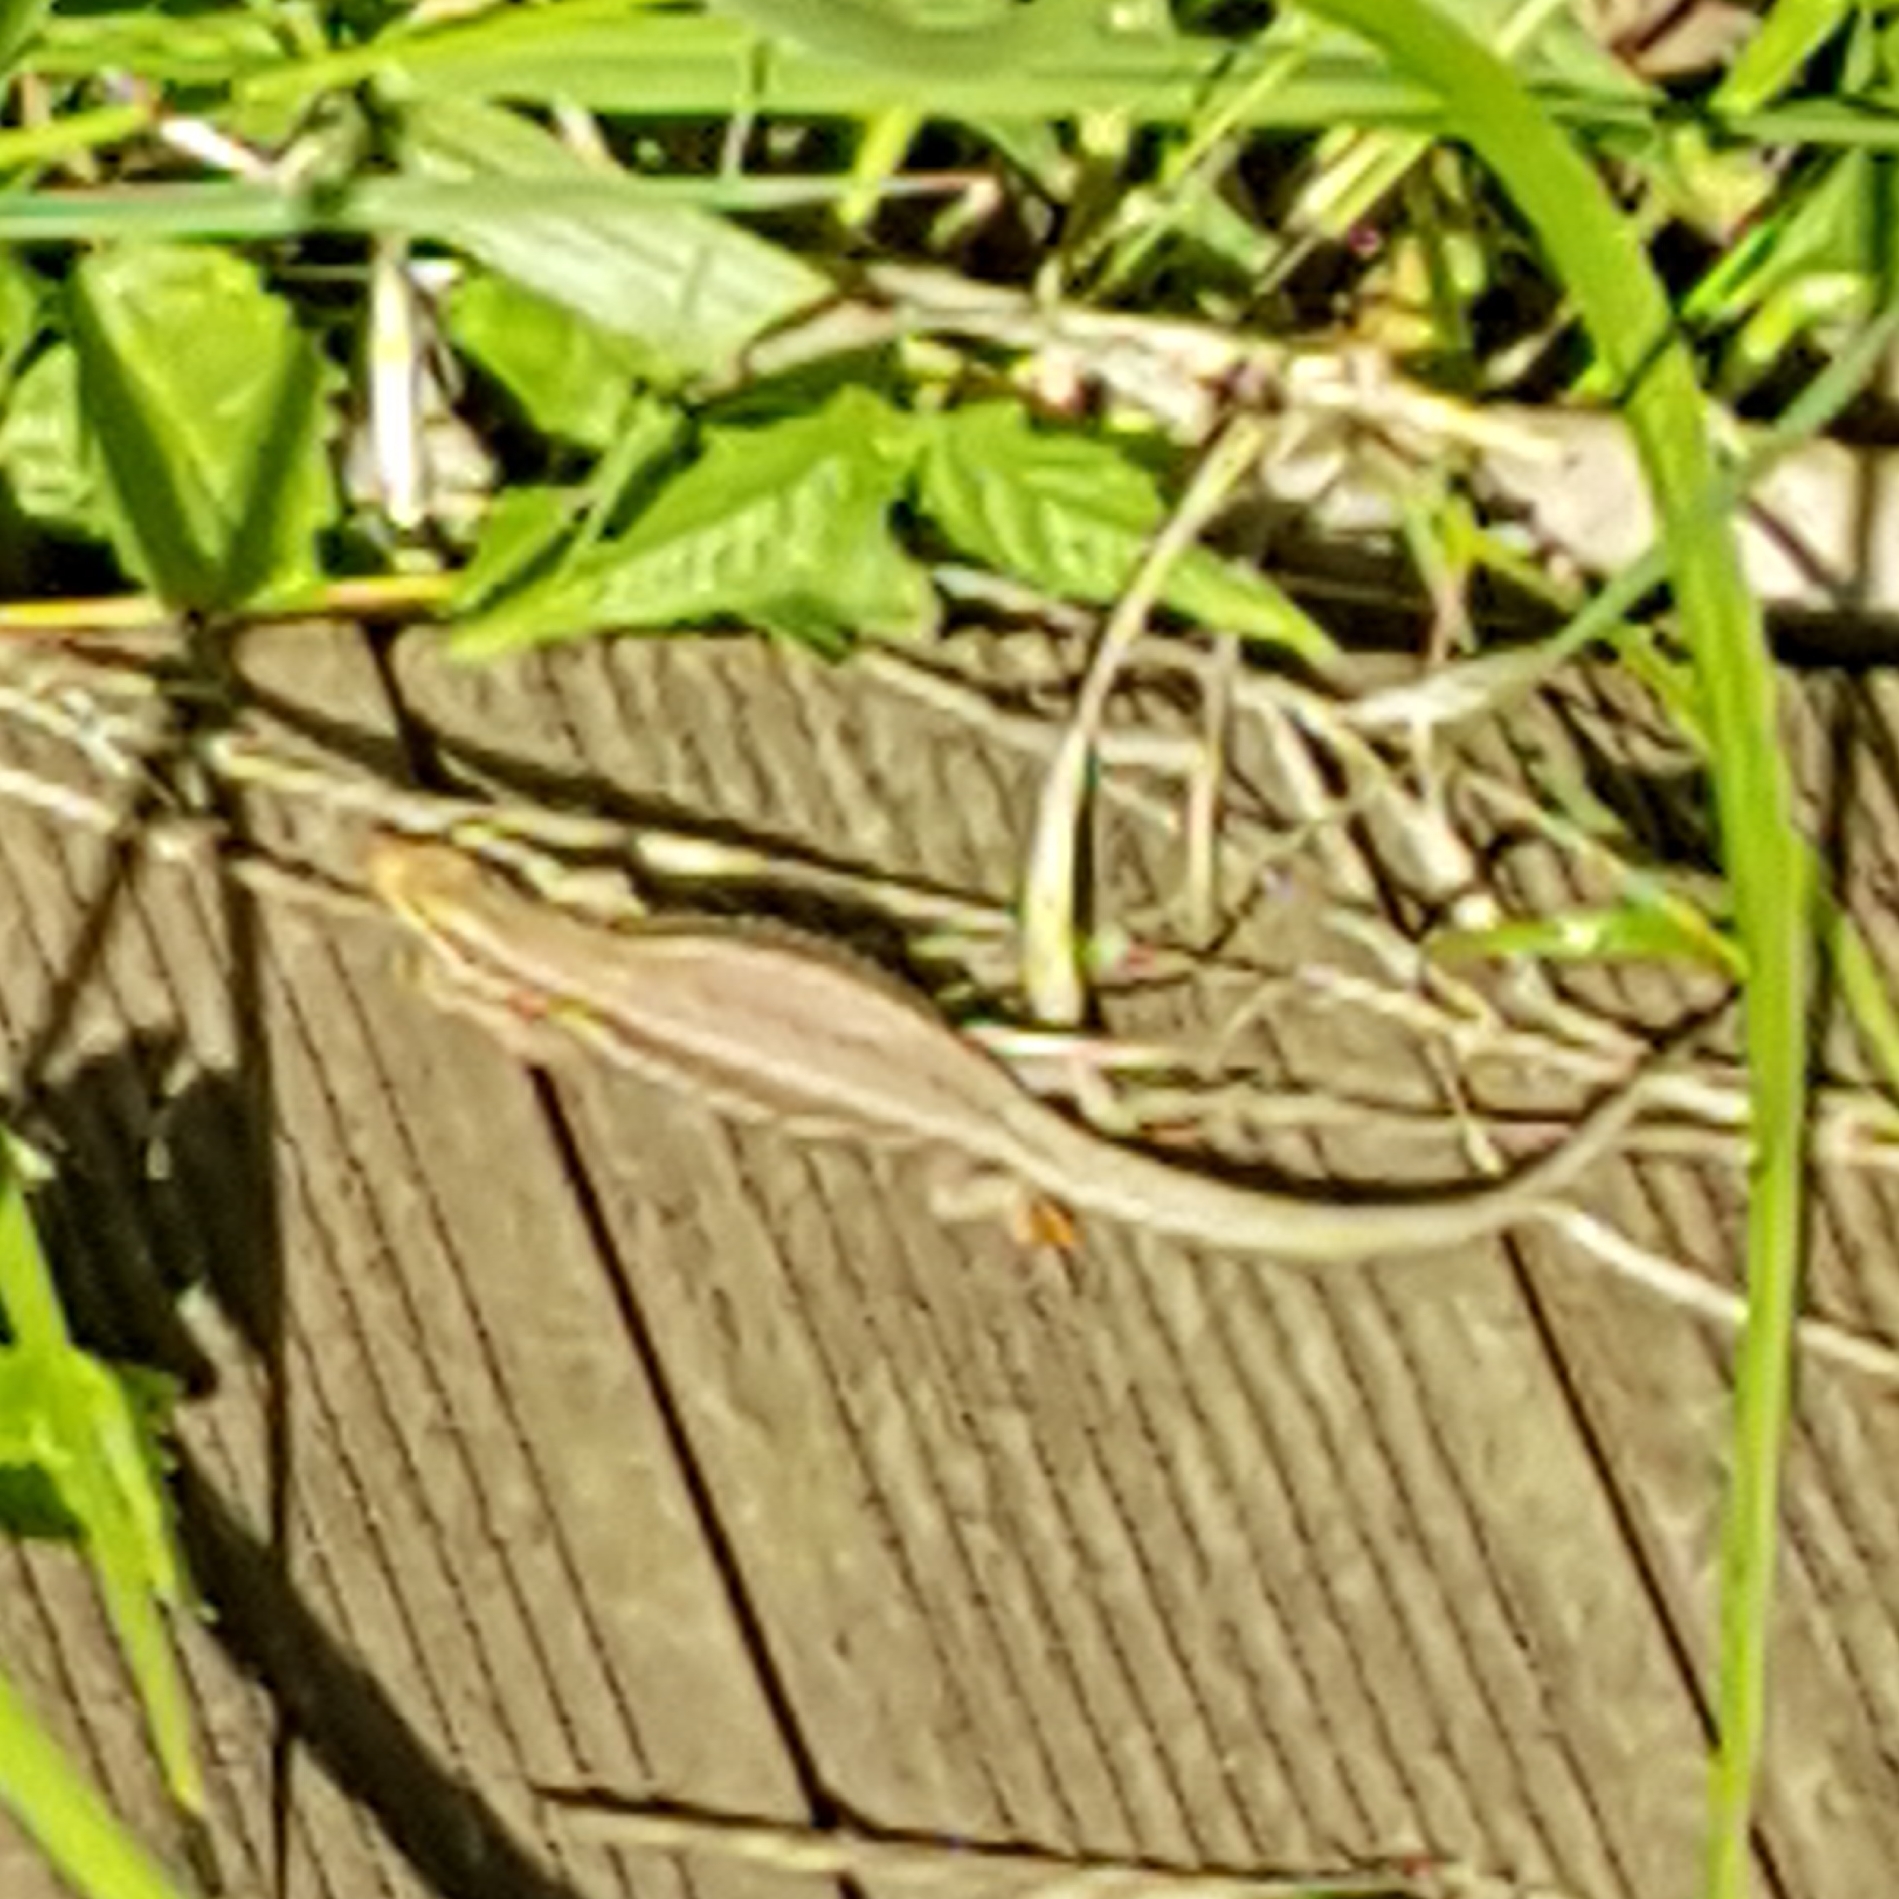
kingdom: Animalia
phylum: Chordata
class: Squamata
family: Lacertidae
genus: Podarcis
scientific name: Podarcis muralis
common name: Common wall lizard
